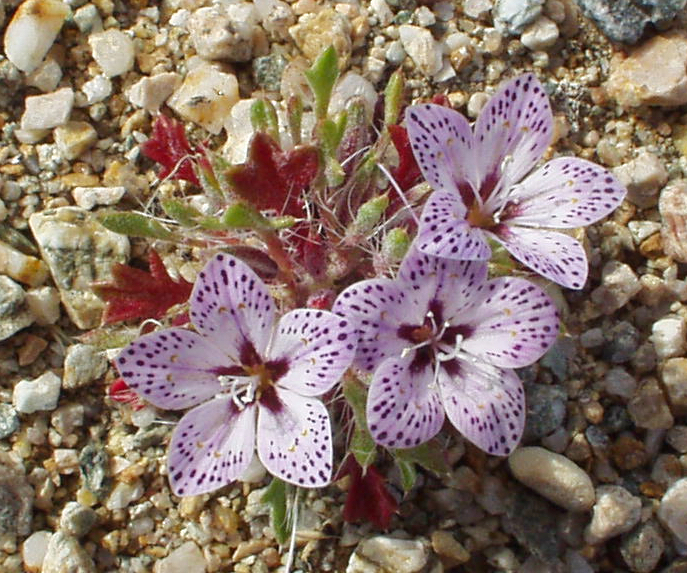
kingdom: Plantae
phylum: Tracheophyta
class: Magnoliopsida
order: Ericales
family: Polemoniaceae
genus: Langloisia
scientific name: Langloisia setosissima
